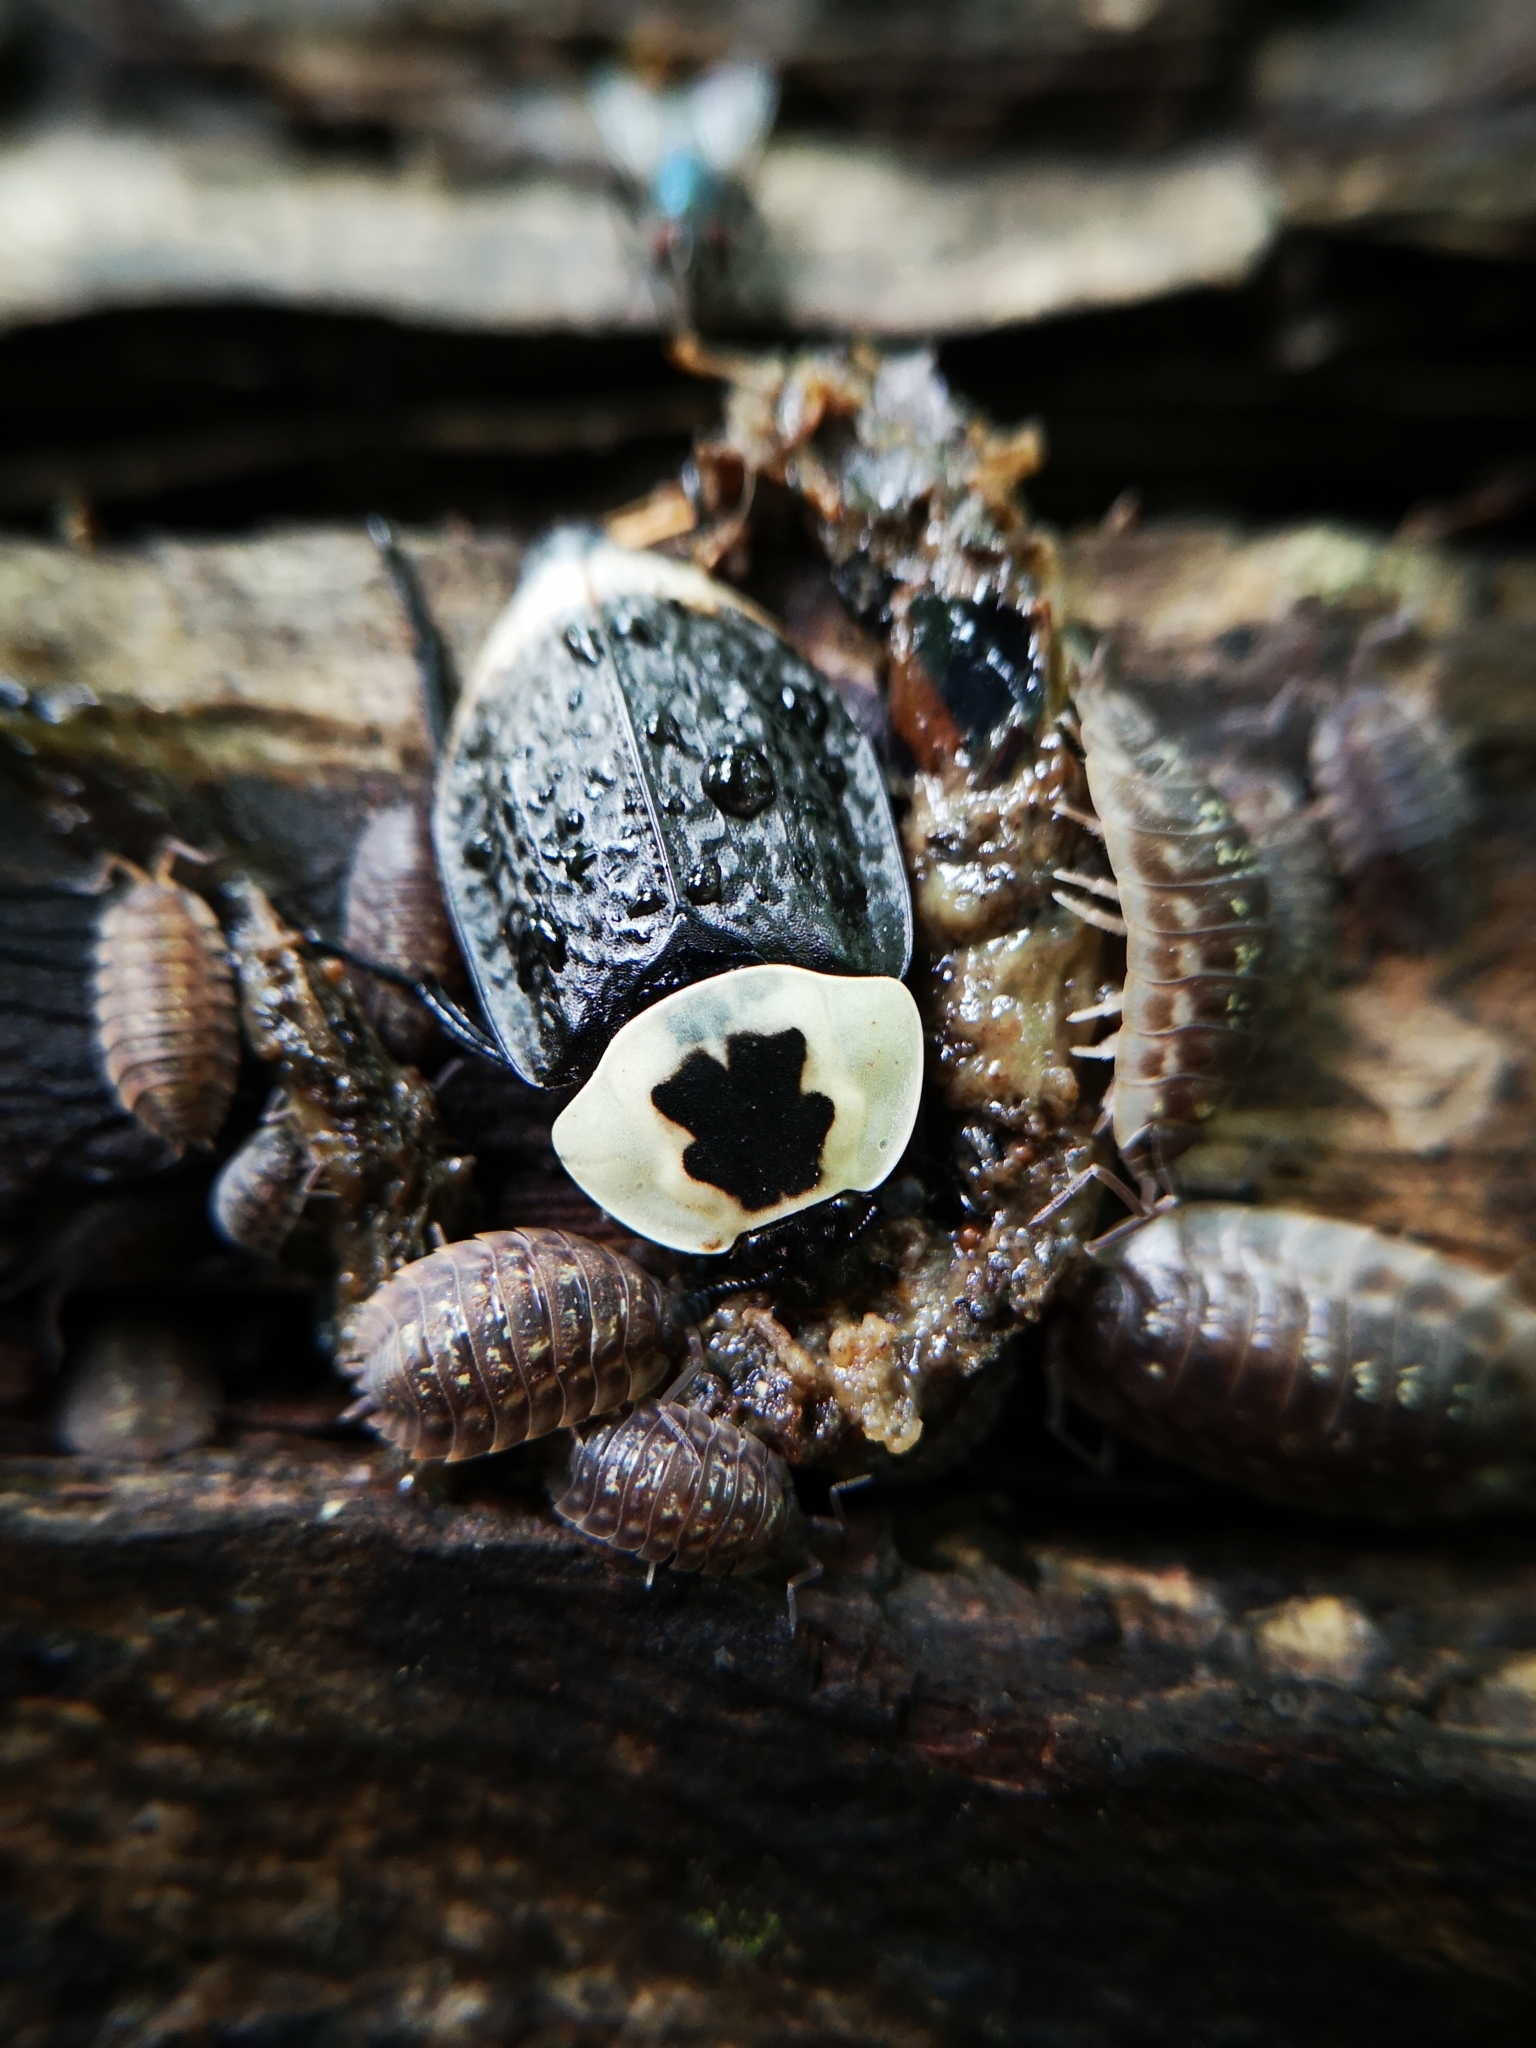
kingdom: Animalia
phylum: Arthropoda
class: Insecta
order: Coleoptera
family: Staphylinidae
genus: Necrophila
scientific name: Necrophila americana
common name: American carrion beetle
